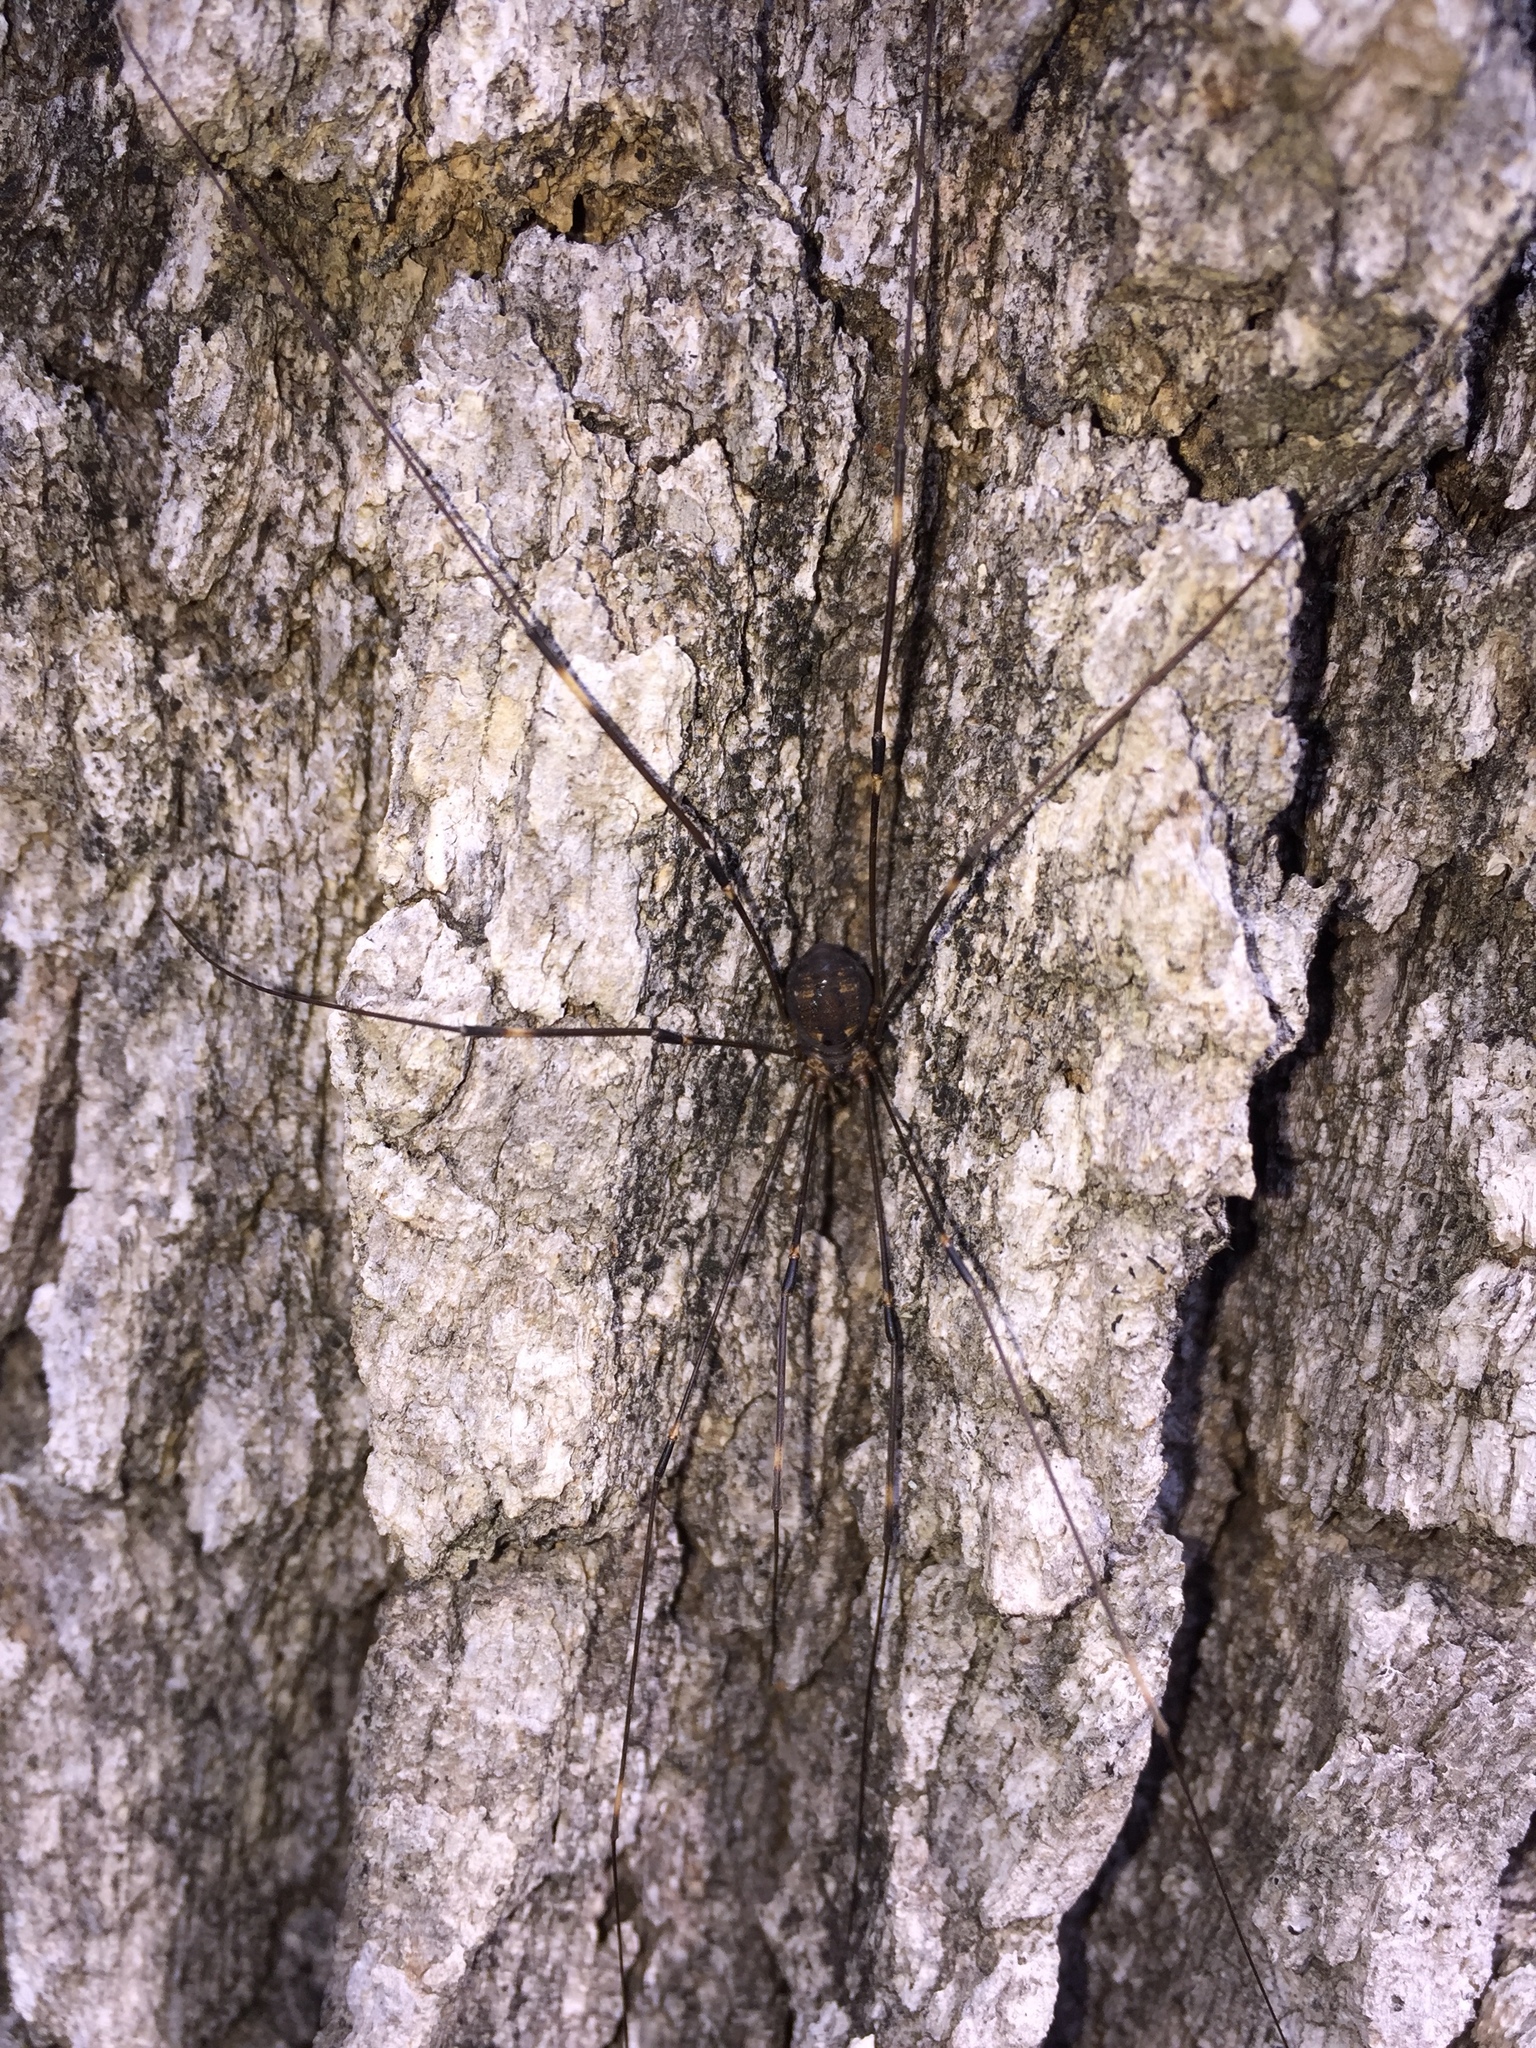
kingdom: Animalia
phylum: Arthropoda
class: Arachnida
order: Opiliones
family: Sclerosomatidae
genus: Leiobunum
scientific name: Leiobunum townsendi
